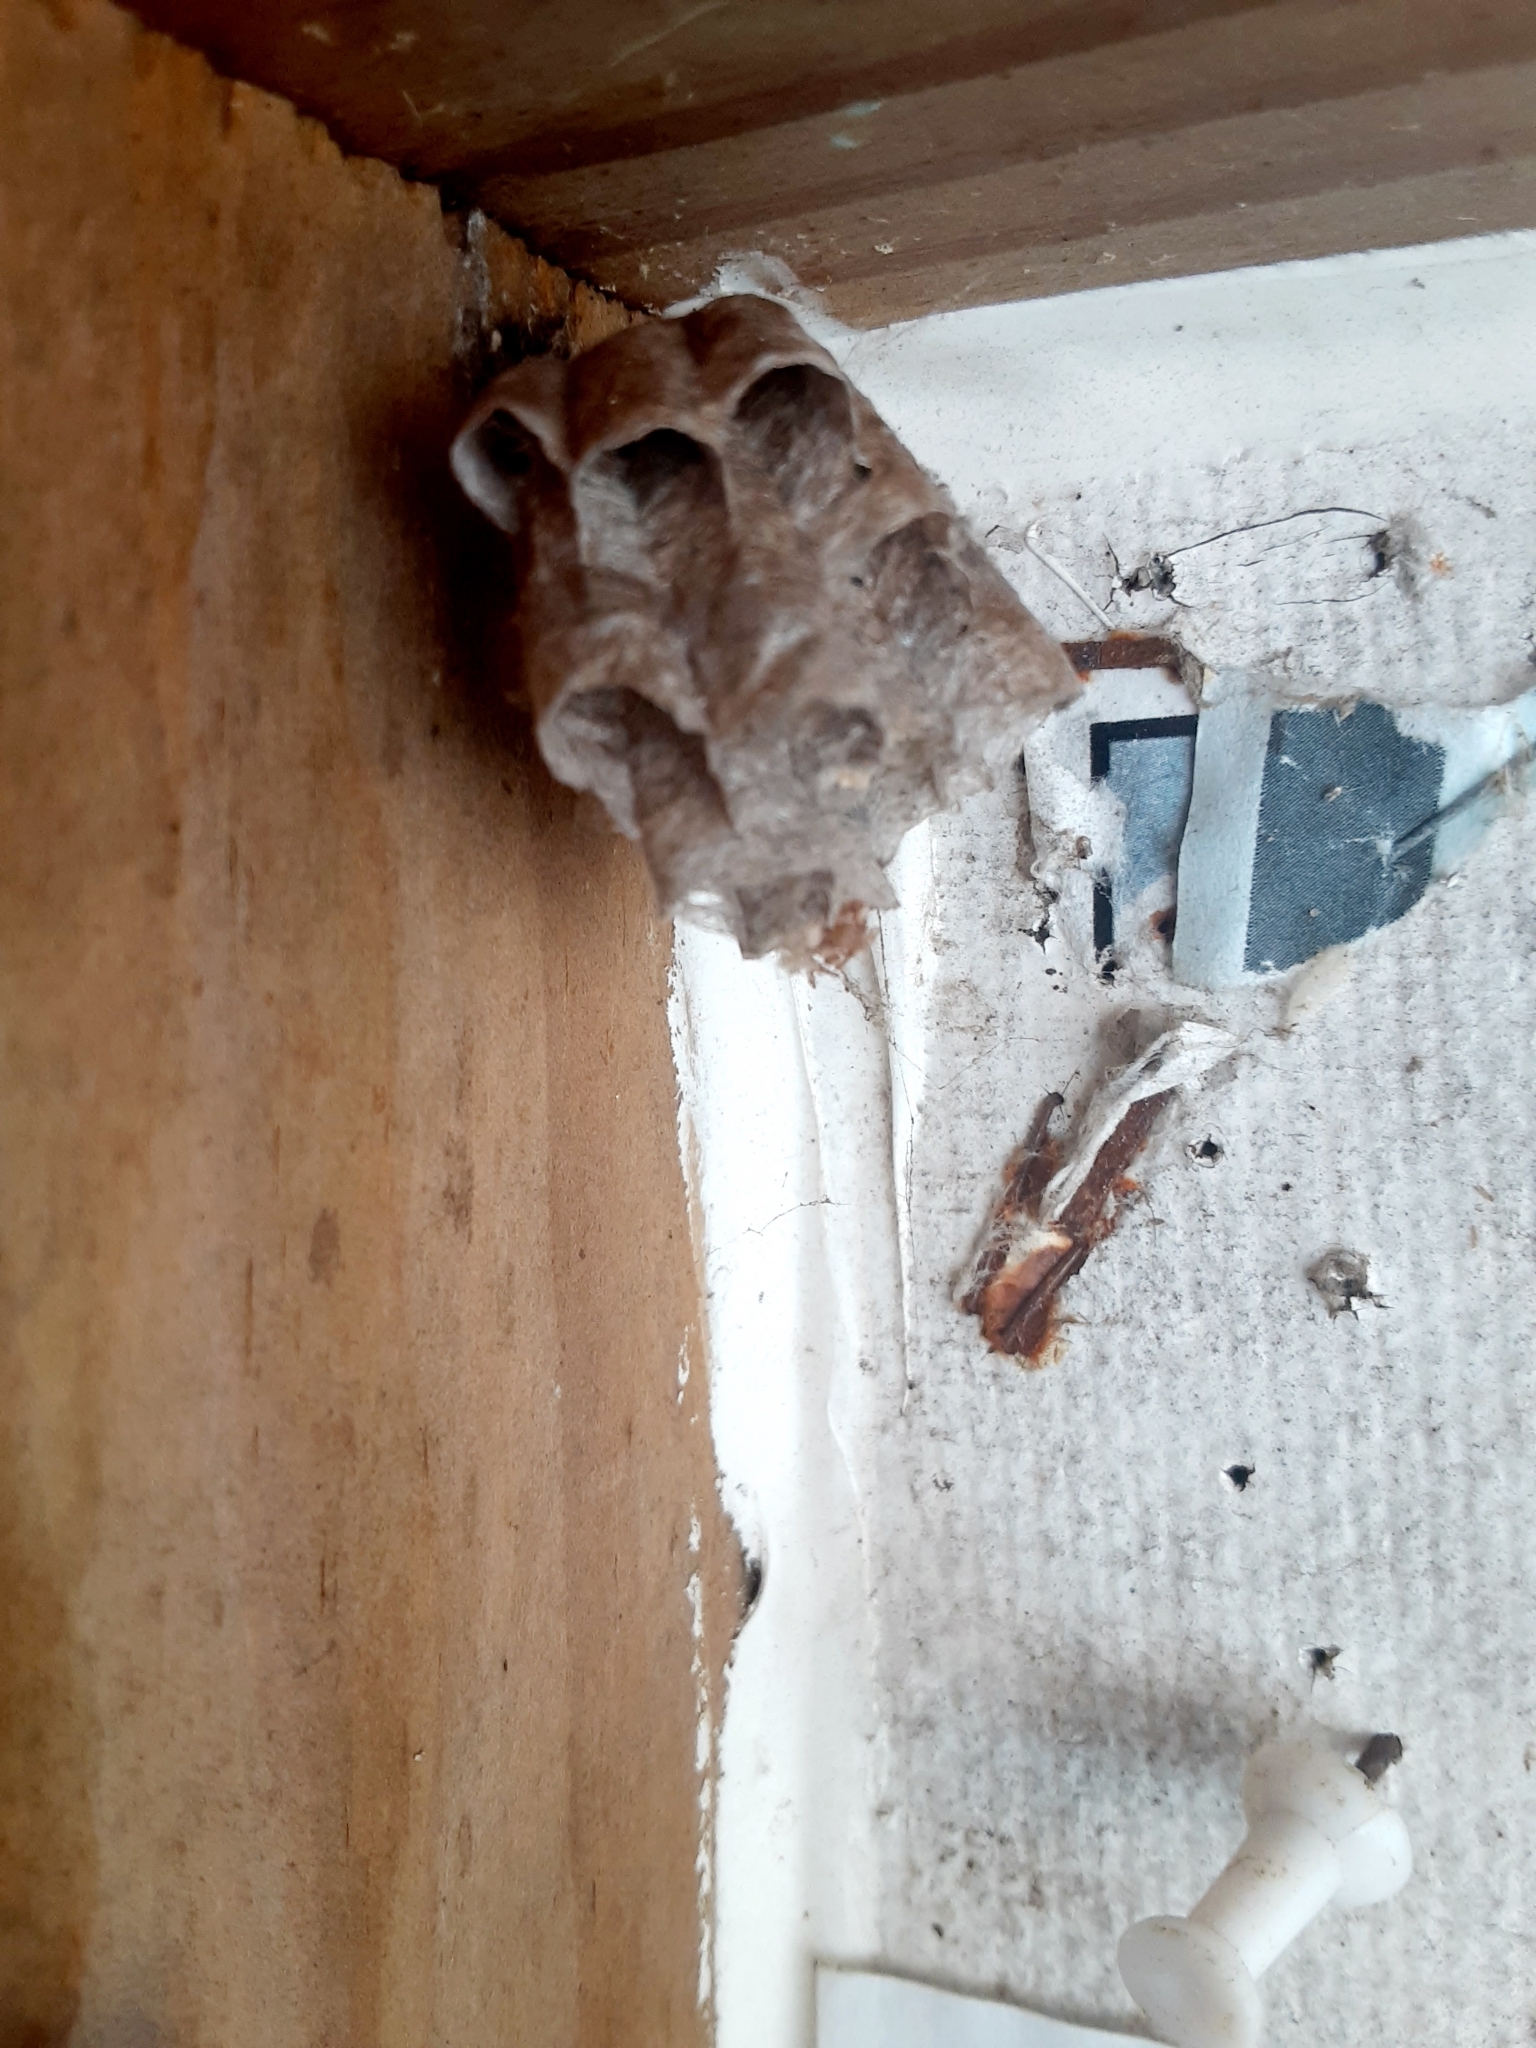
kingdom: Animalia
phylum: Arthropoda
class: Insecta
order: Hymenoptera
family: Eumenidae
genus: Polistes
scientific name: Polistes
